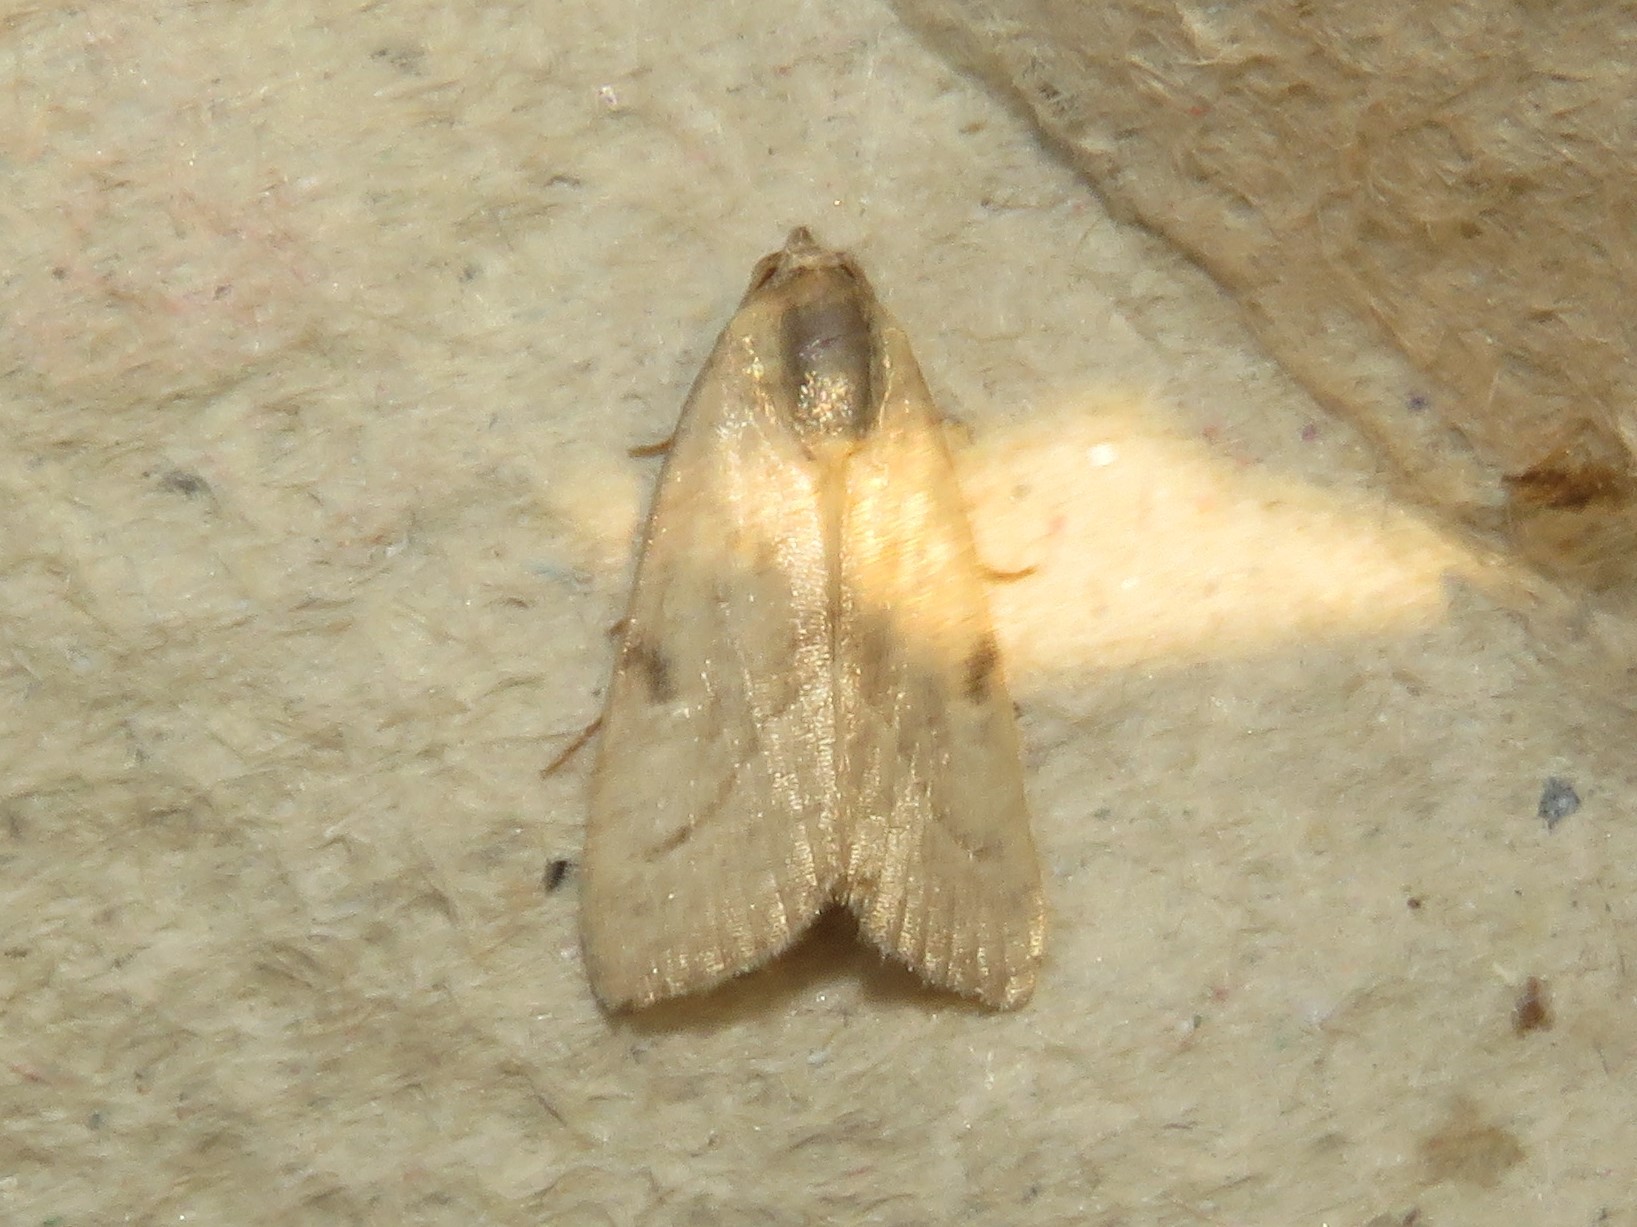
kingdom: Animalia
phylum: Arthropoda
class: Insecta
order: Lepidoptera
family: Noctuidae
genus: Galgula
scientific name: Galgula partita
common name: Wedgeling
